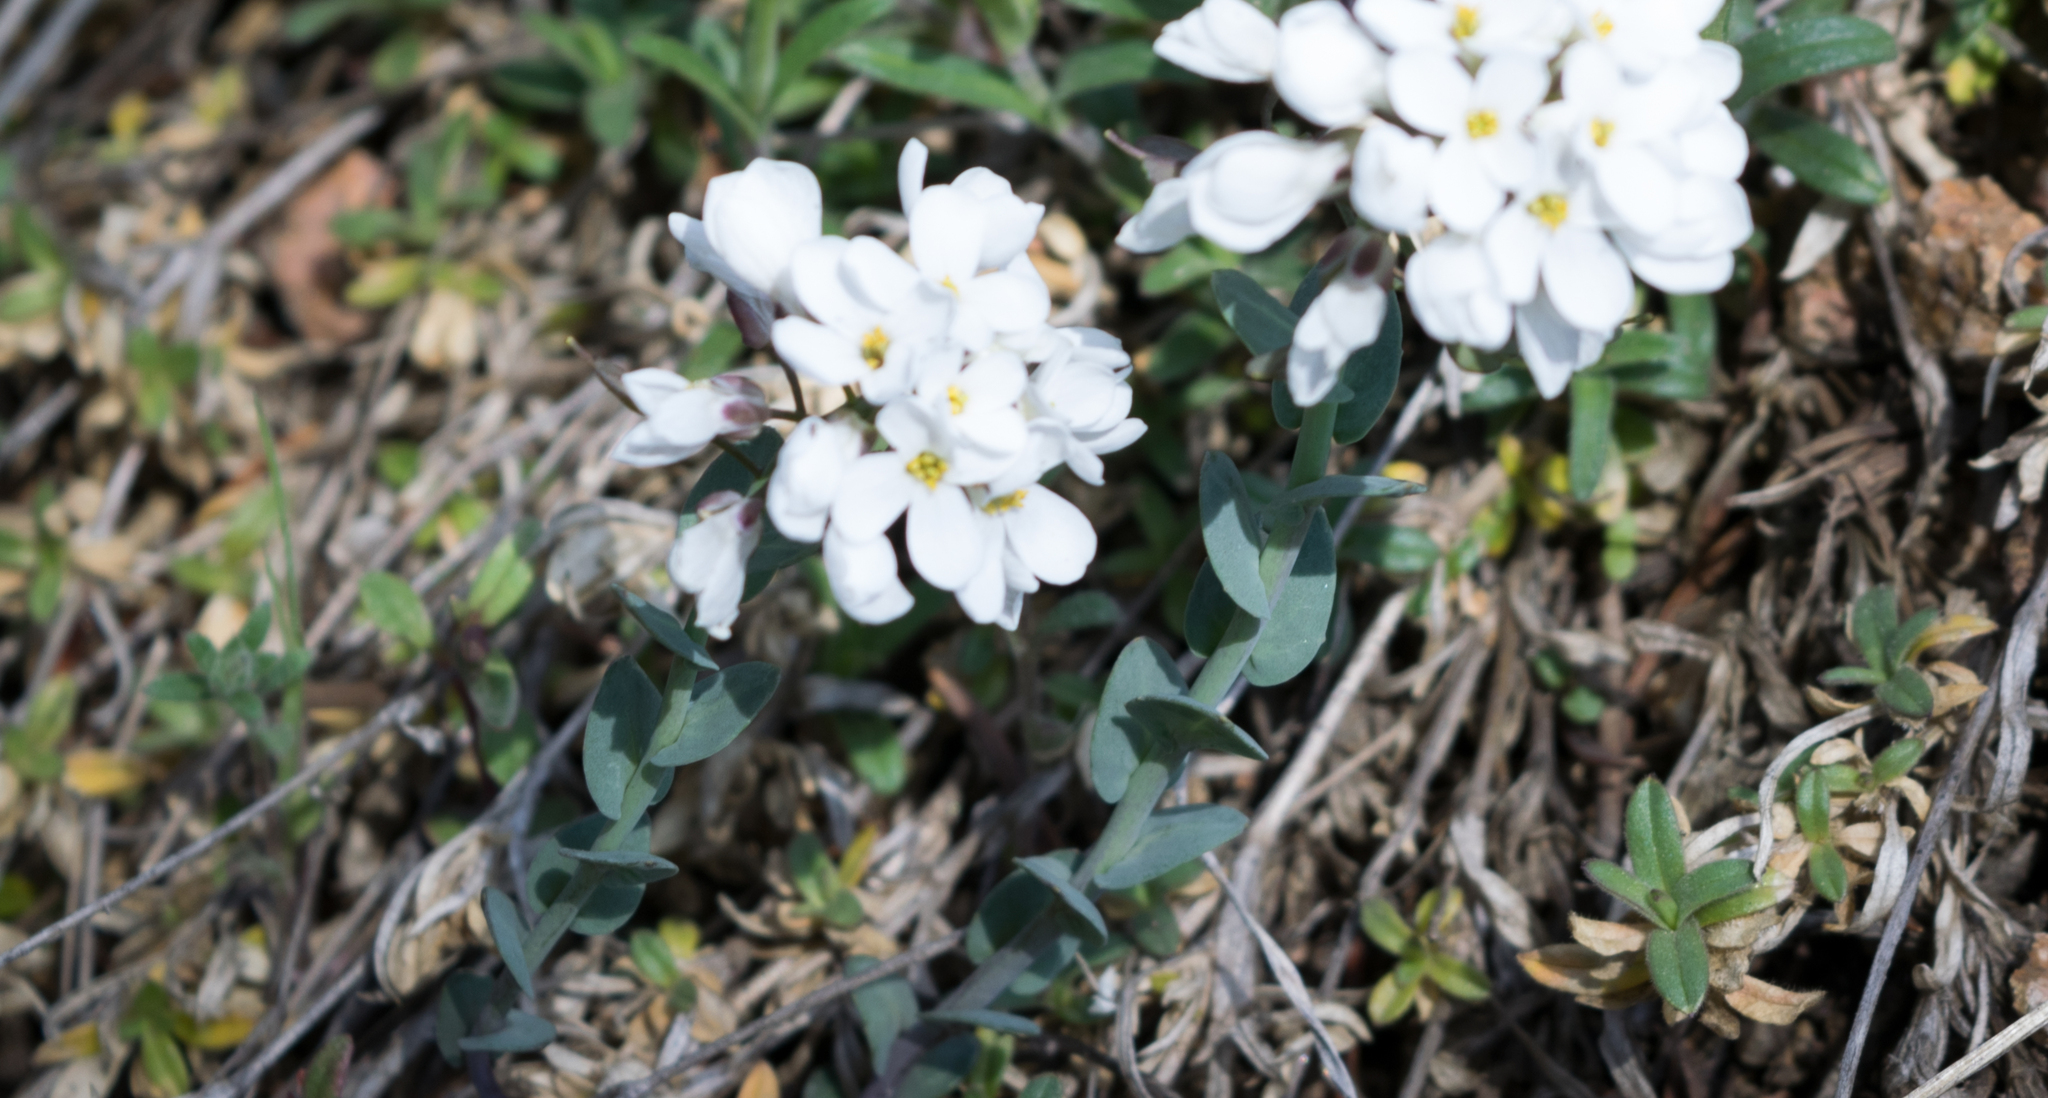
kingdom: Plantae
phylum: Tracheophyta
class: Magnoliopsida
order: Brassicales
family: Brassicaceae
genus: Noccaea
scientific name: Noccaea fendleri
